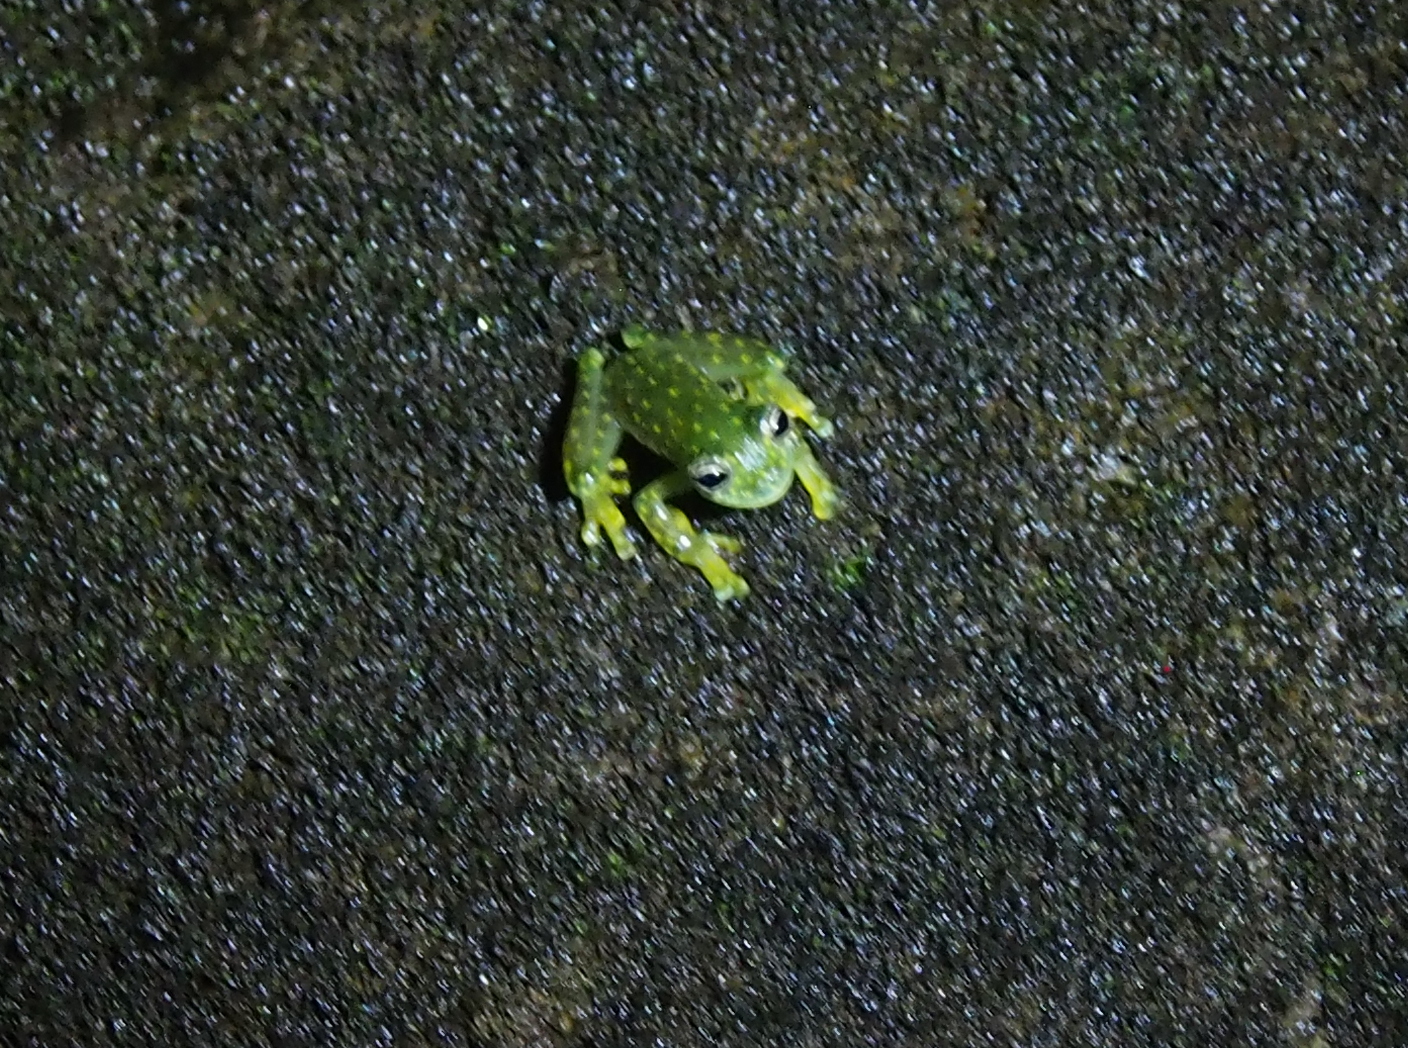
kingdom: Animalia
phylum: Chordata
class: Amphibia
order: Anura
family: Centrolenidae
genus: Sachatamia
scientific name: Sachatamia albomaculata
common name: Rana de cristal de cascada
